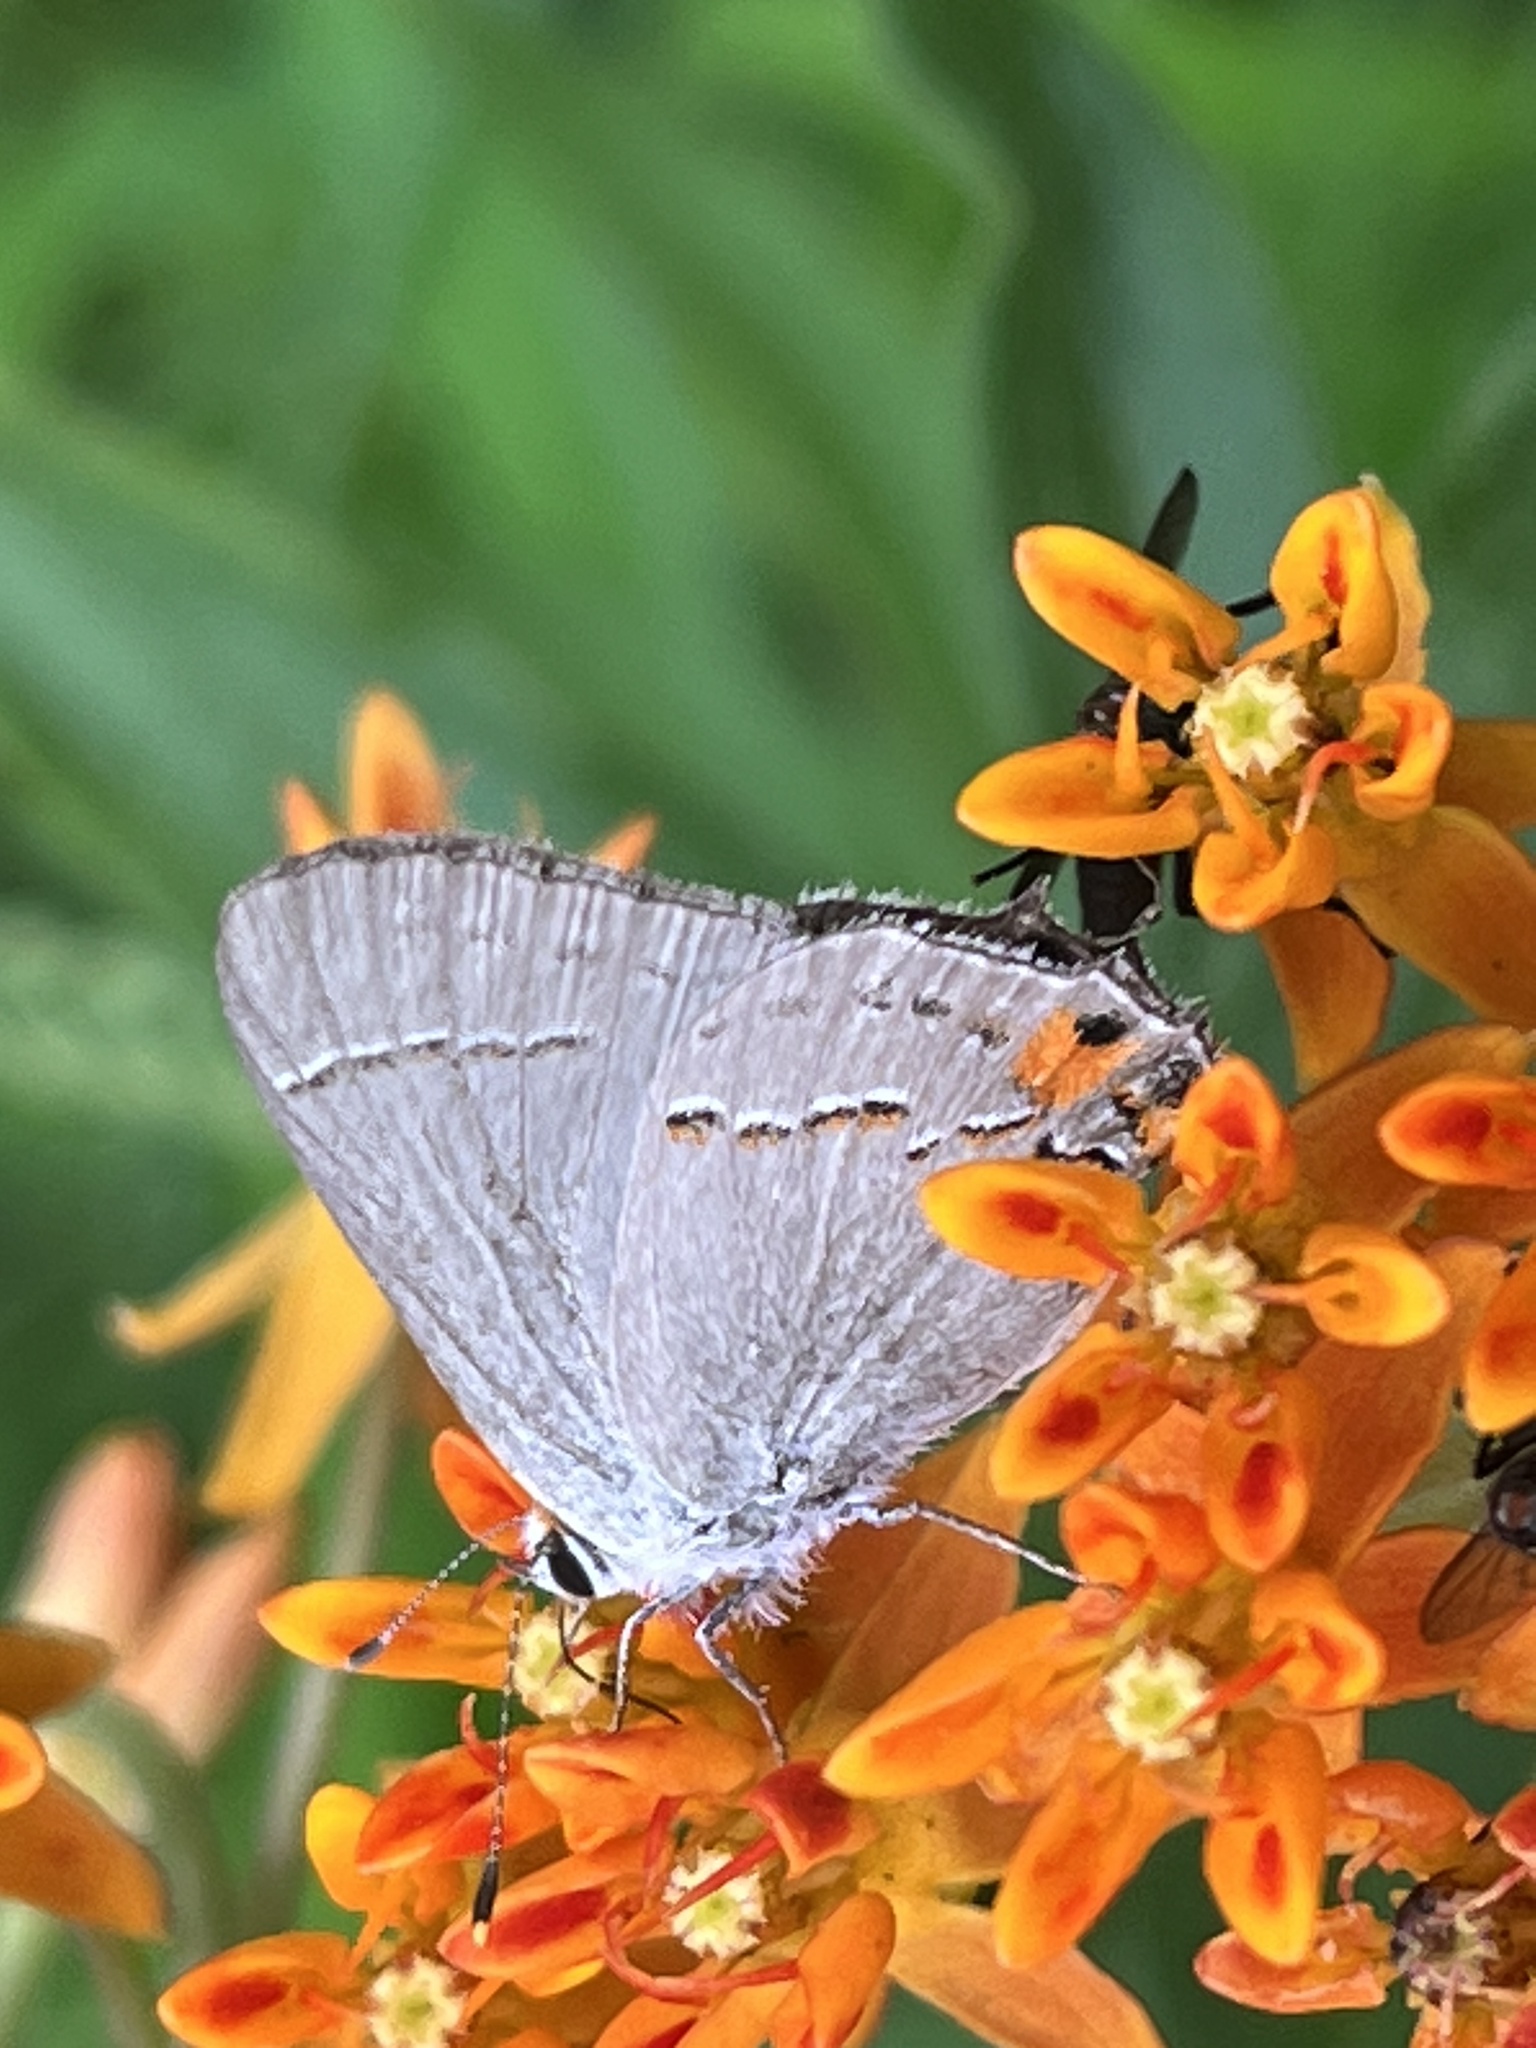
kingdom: Animalia
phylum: Arthropoda
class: Insecta
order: Lepidoptera
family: Lycaenidae
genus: Strymon
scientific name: Strymon melinus
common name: Gray hairstreak
